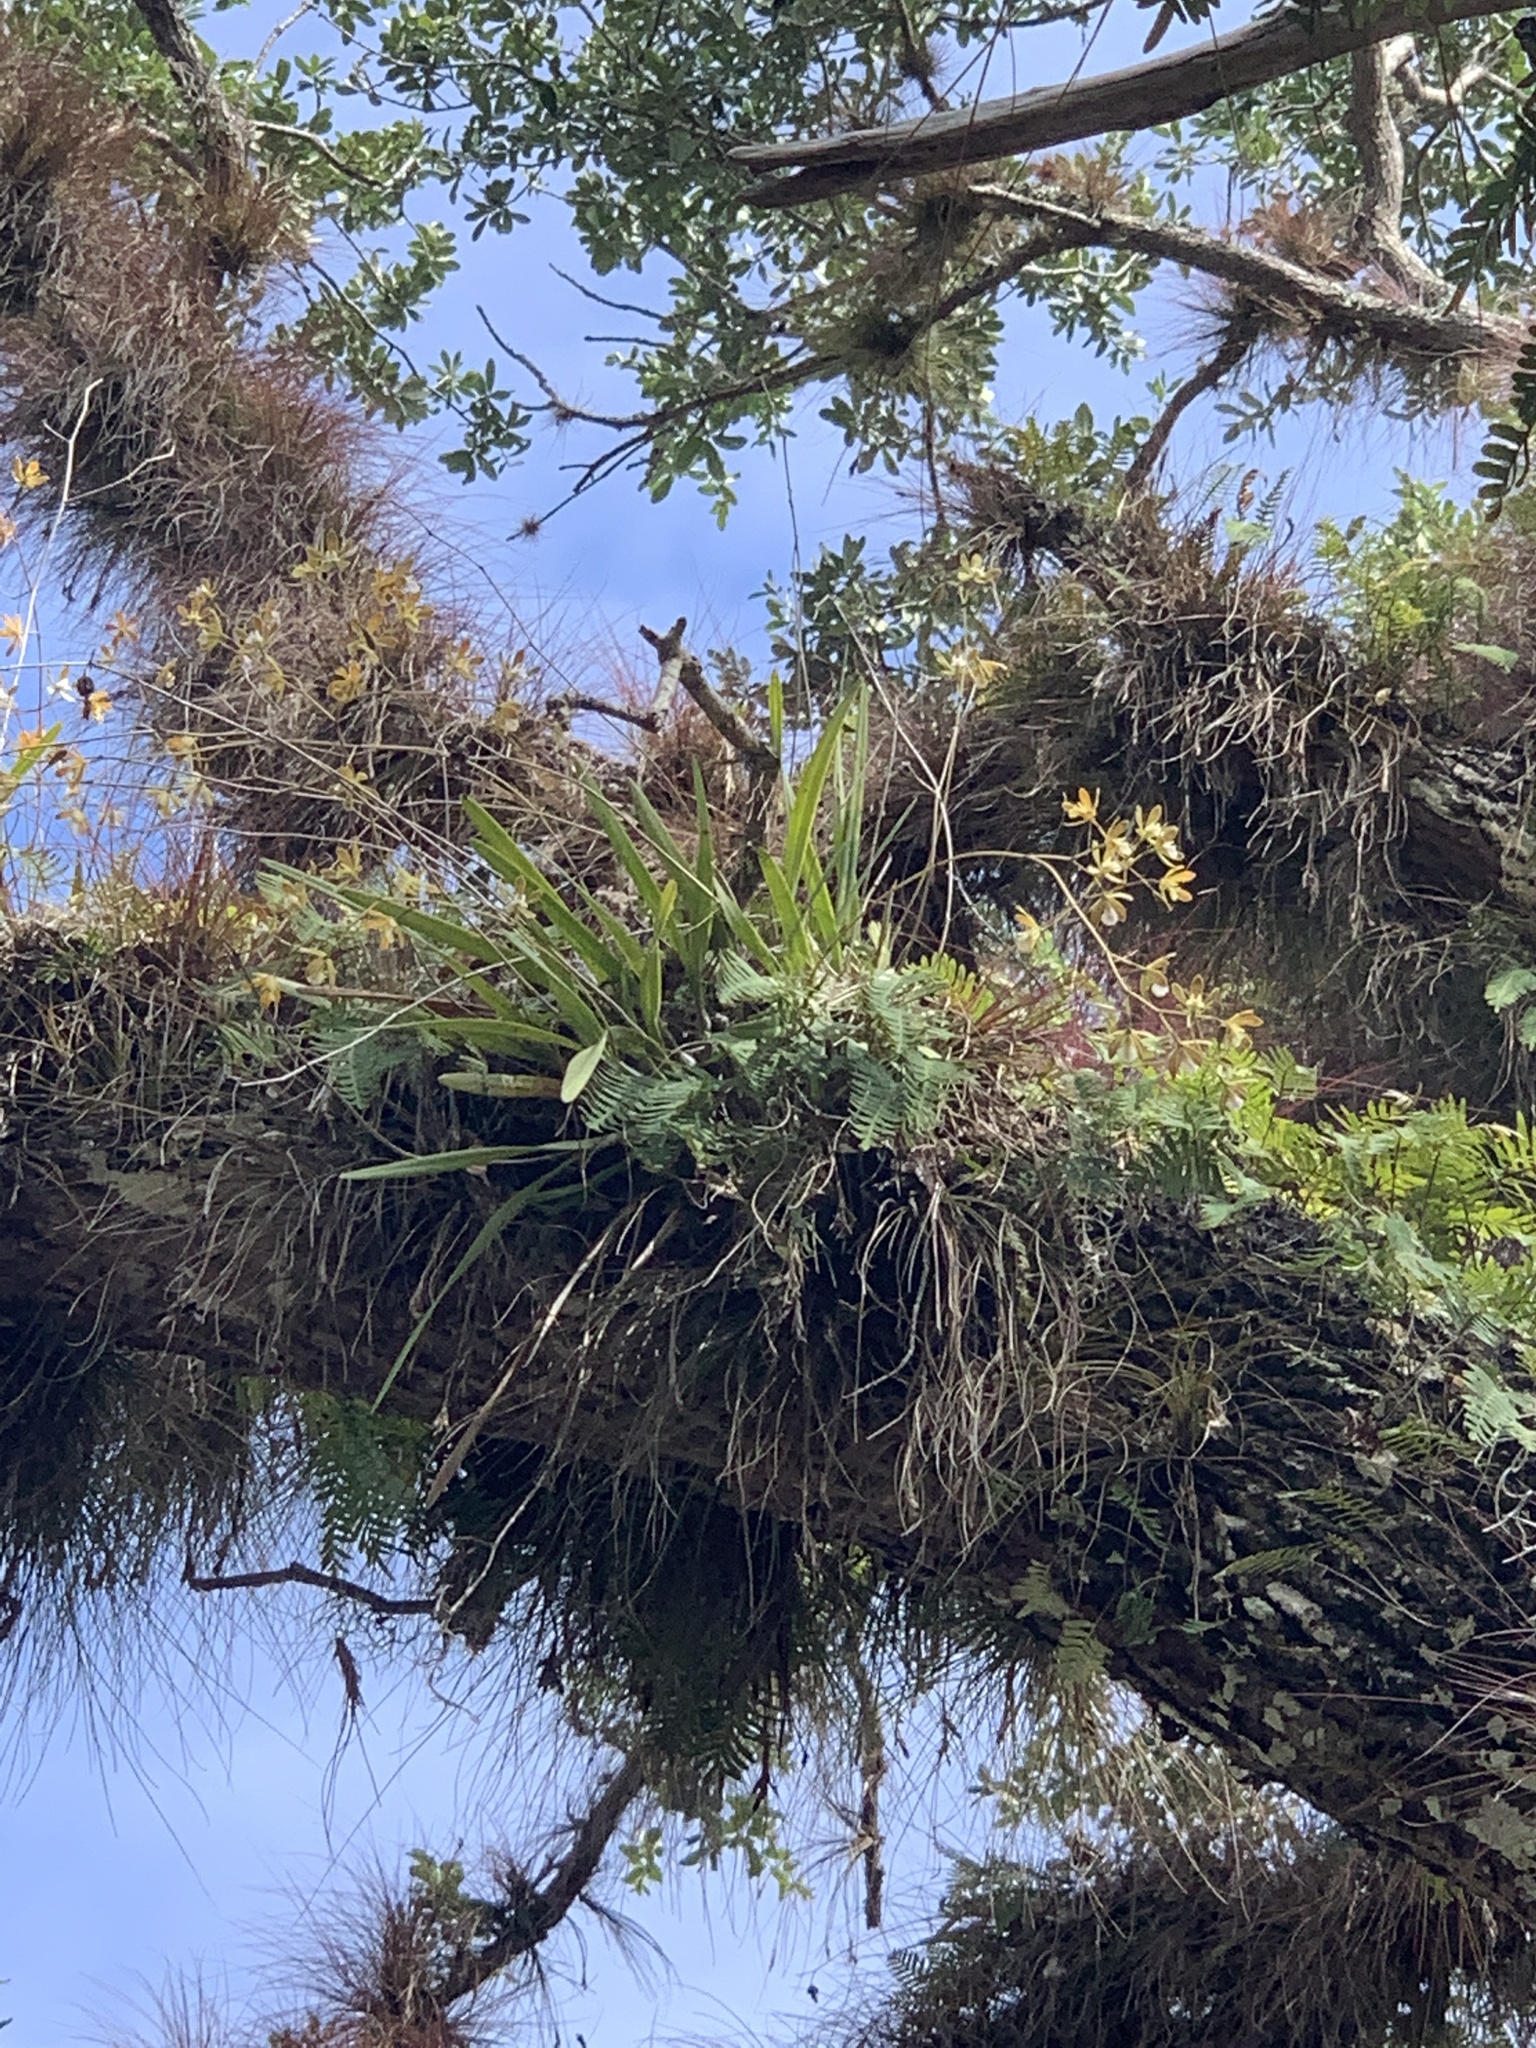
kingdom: Plantae
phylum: Tracheophyta
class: Liliopsida
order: Asparagales
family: Orchidaceae
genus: Encyclia
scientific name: Encyclia tampensis
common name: Florida butterfly orchid
